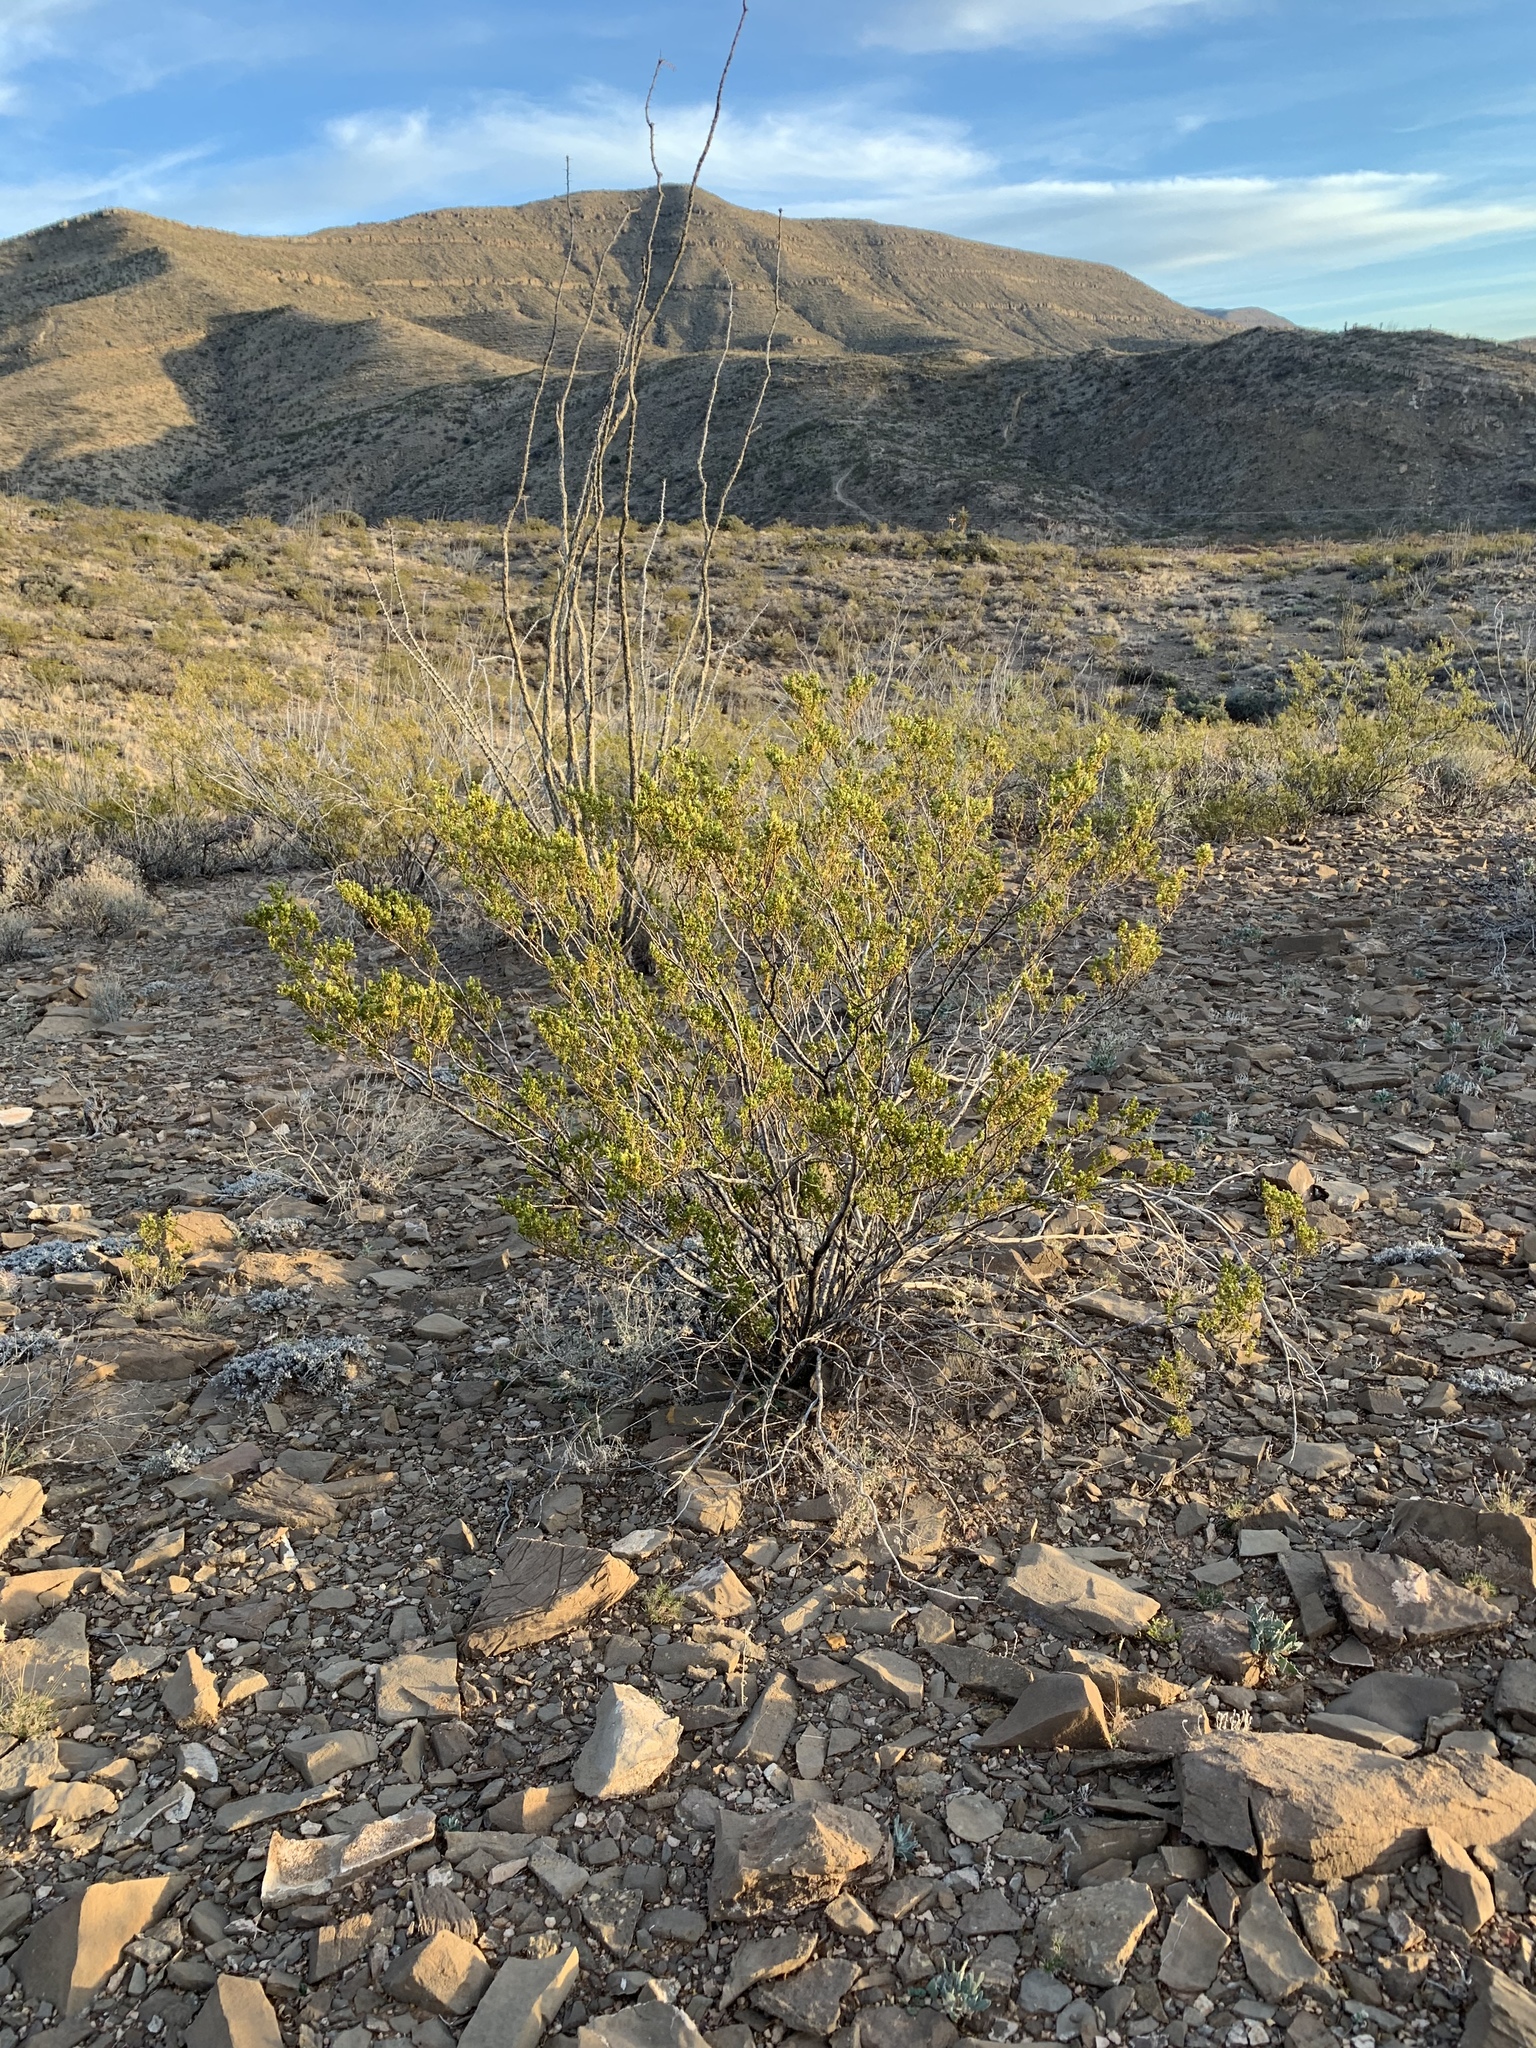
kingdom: Plantae
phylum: Tracheophyta
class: Magnoliopsida
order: Zygophyllales
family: Zygophyllaceae
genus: Larrea
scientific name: Larrea tridentata
